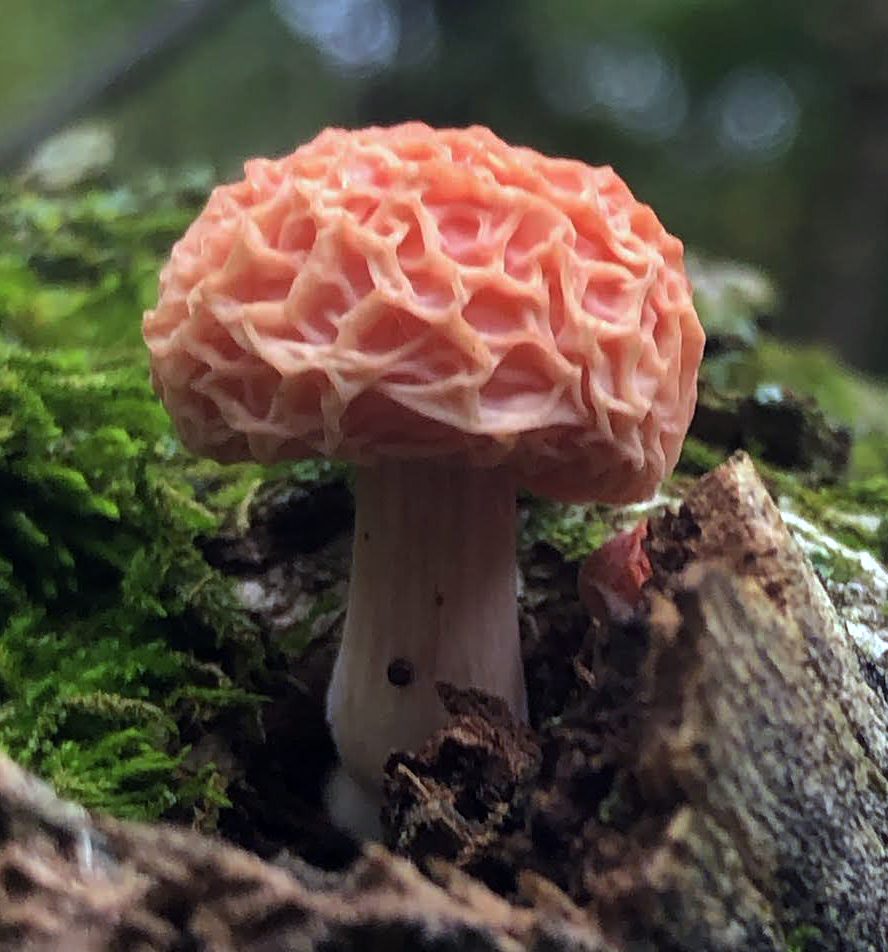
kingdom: Fungi
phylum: Basidiomycota
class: Agaricomycetes
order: Agaricales
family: Physalacriaceae
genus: Rhodotus
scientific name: Rhodotus palmatus
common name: Wrinkled peach
